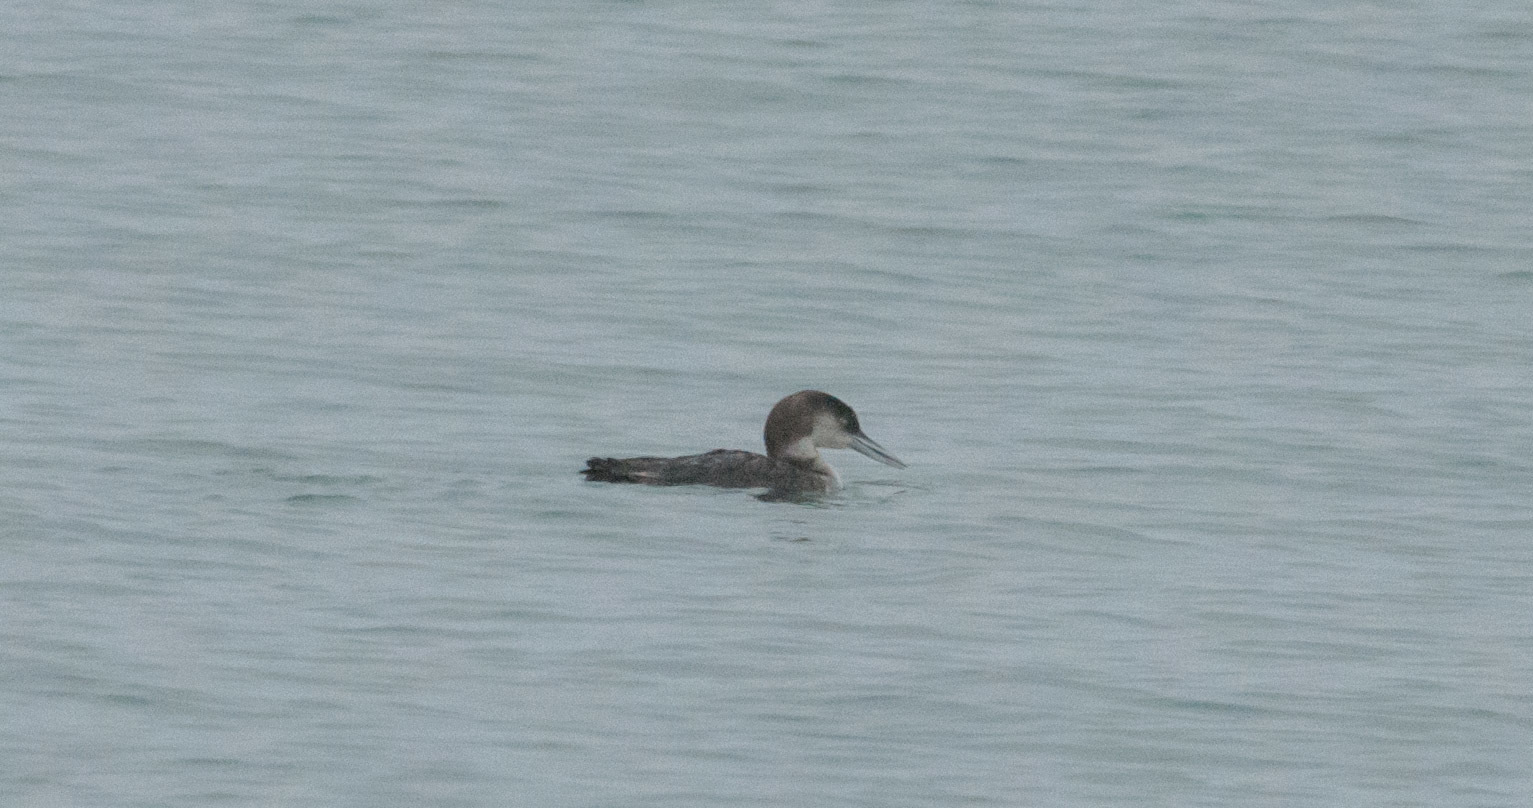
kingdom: Animalia
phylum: Chordata
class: Aves
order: Gaviiformes
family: Gaviidae
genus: Gavia
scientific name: Gavia immer
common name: Common loon
